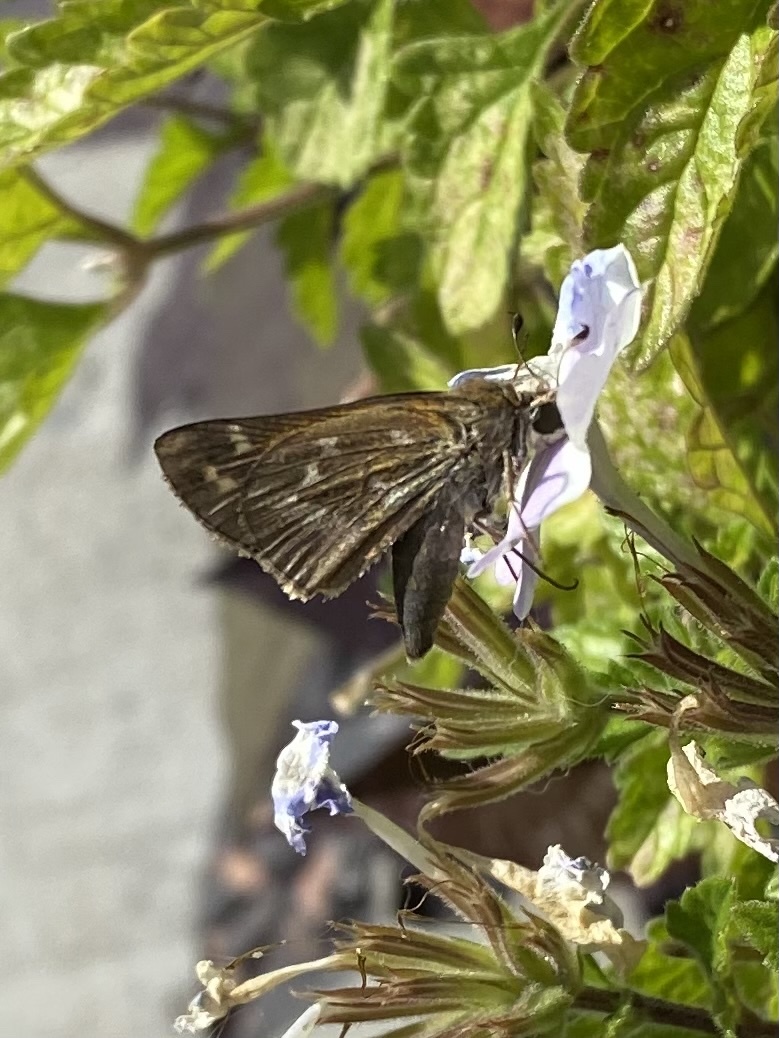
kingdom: Animalia
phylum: Arthropoda
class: Insecta
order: Lepidoptera
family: Hesperiidae
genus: Atalopedes
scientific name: Atalopedes
